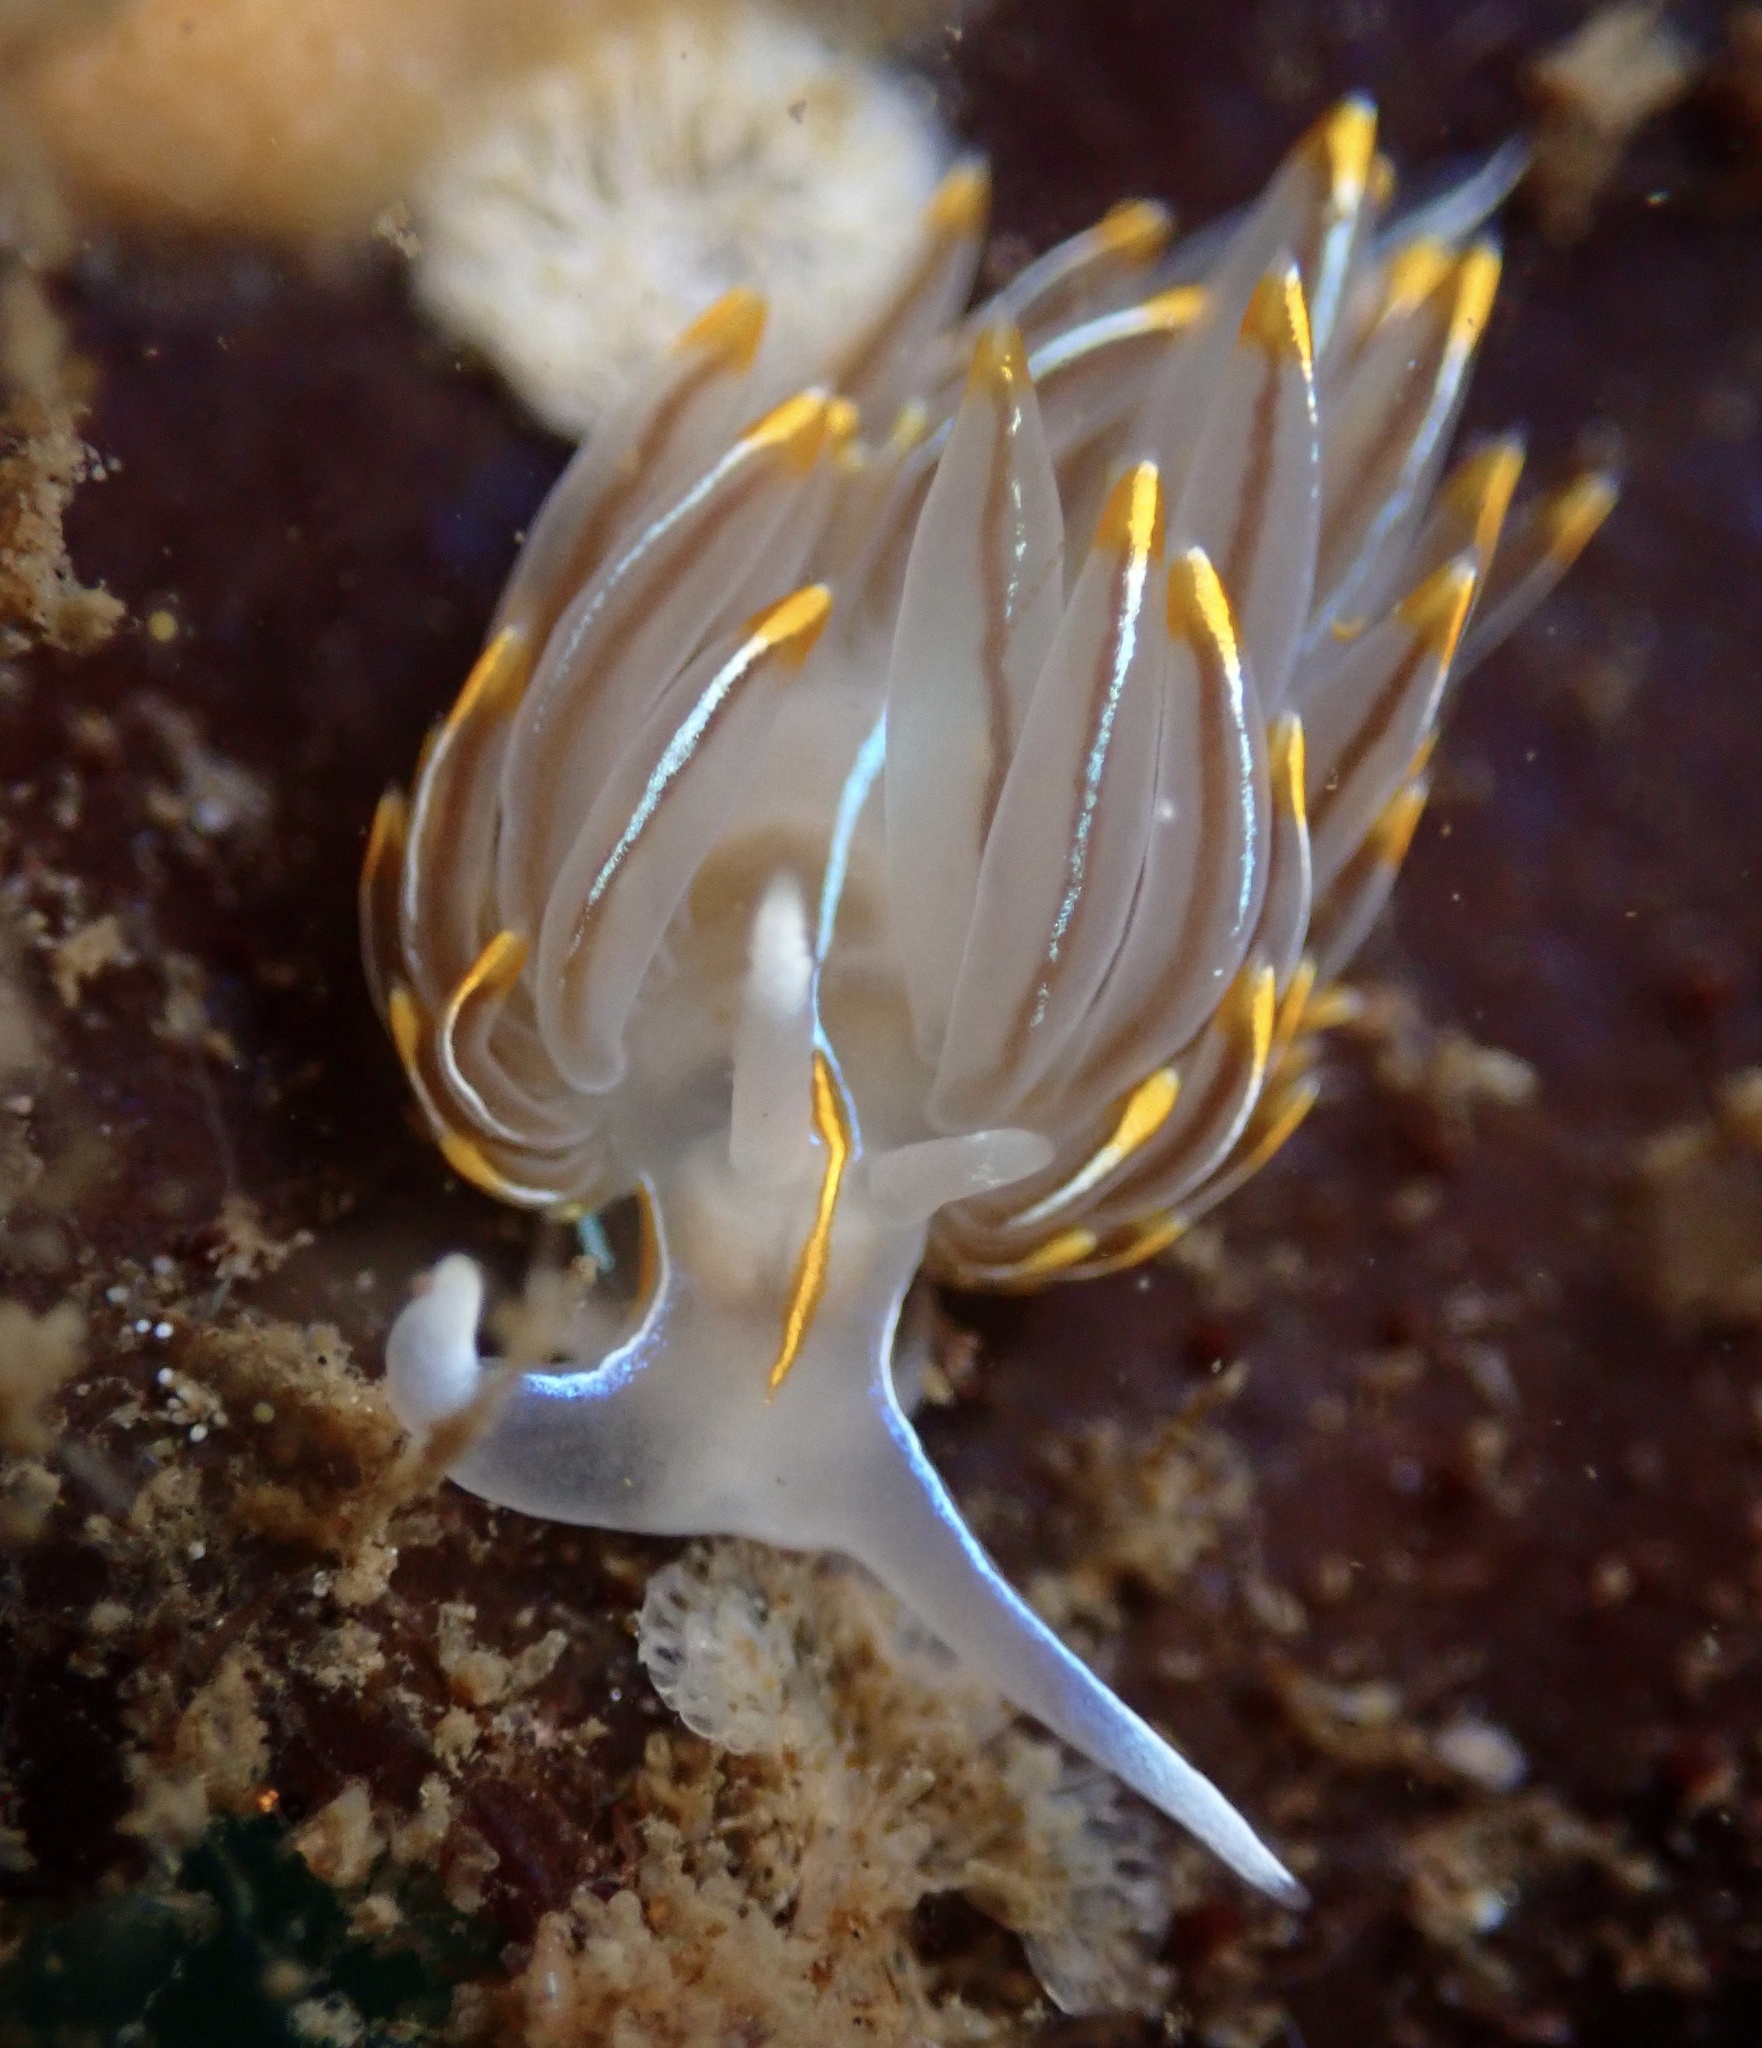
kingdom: Animalia
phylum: Mollusca
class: Gastropoda
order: Nudibranchia
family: Myrrhinidae
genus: Hermissenda
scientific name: Hermissenda crassicornis
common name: Hermissenda
